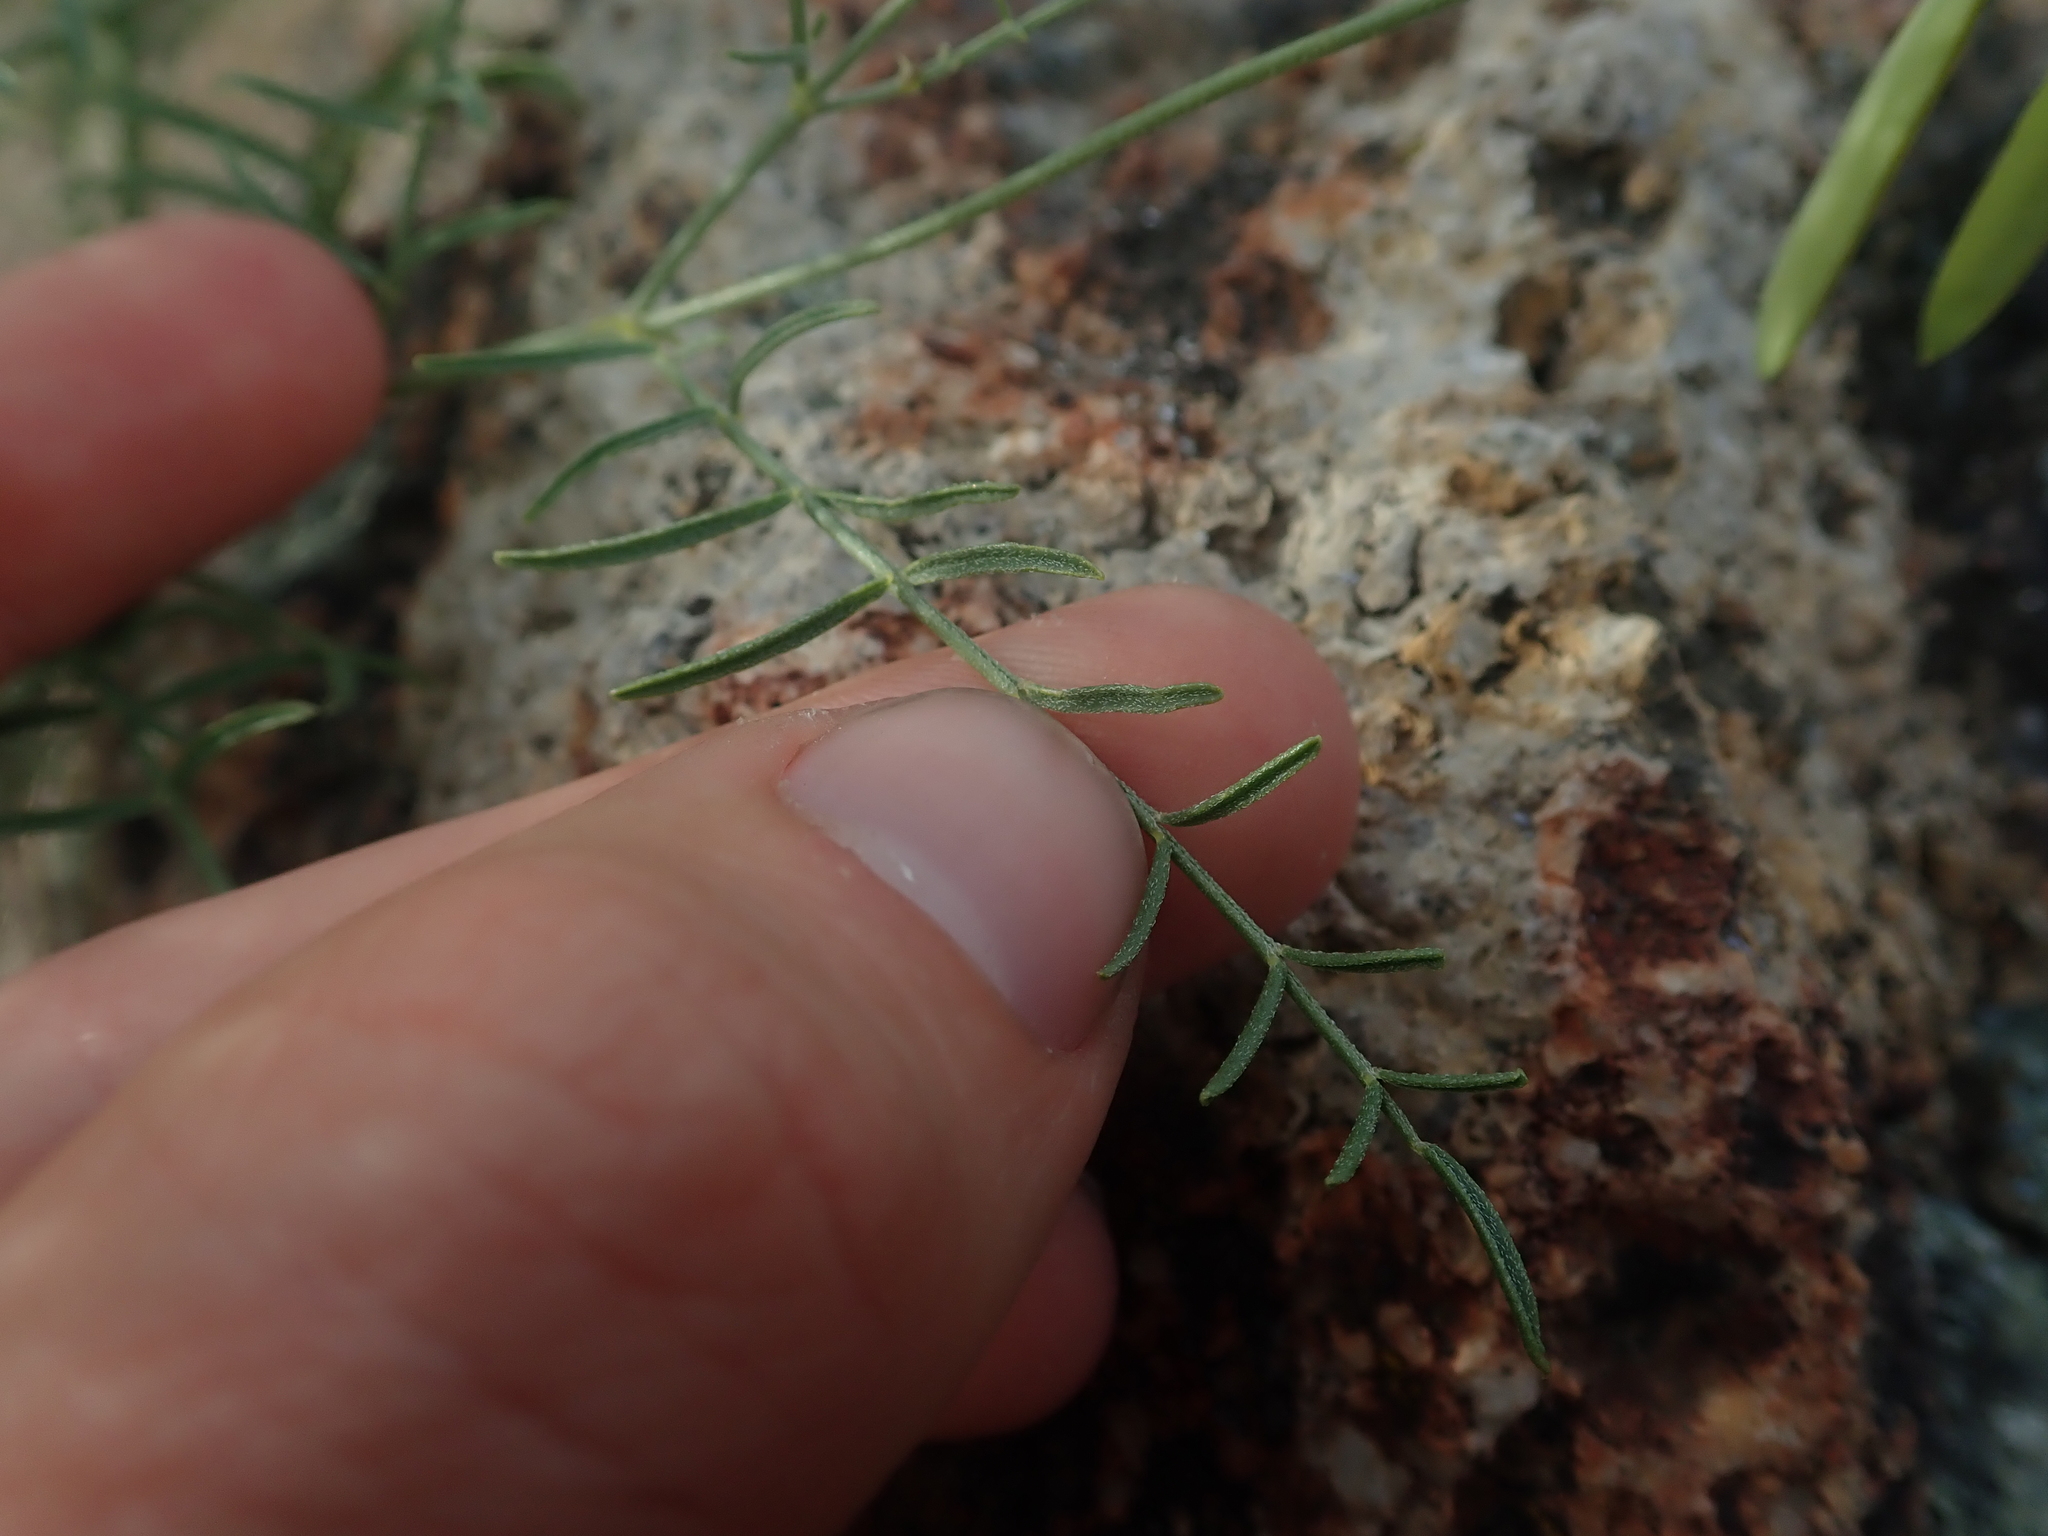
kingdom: Plantae
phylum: Tracheophyta
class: Magnoliopsida
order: Fabales
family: Fabaceae
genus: Astragalus
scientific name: Astragalus filipes
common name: Basalt milk-vetch
